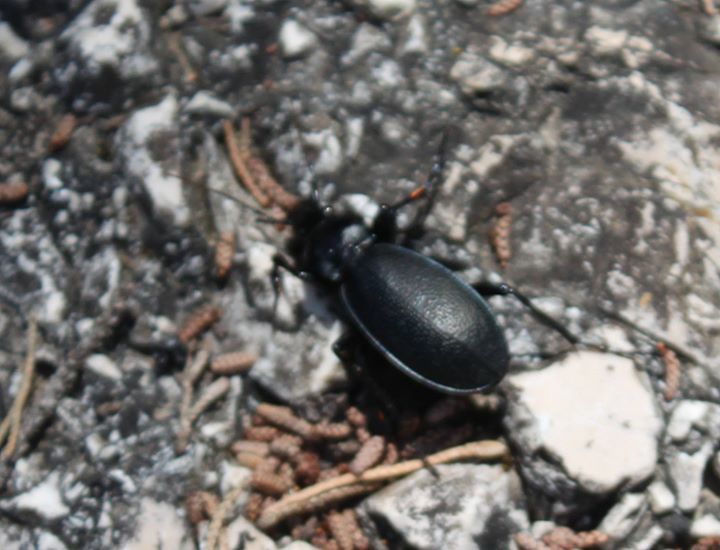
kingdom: Animalia
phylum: Arthropoda
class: Insecta
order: Coleoptera
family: Carabidae
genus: Carabus
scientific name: Carabus coriaceus
